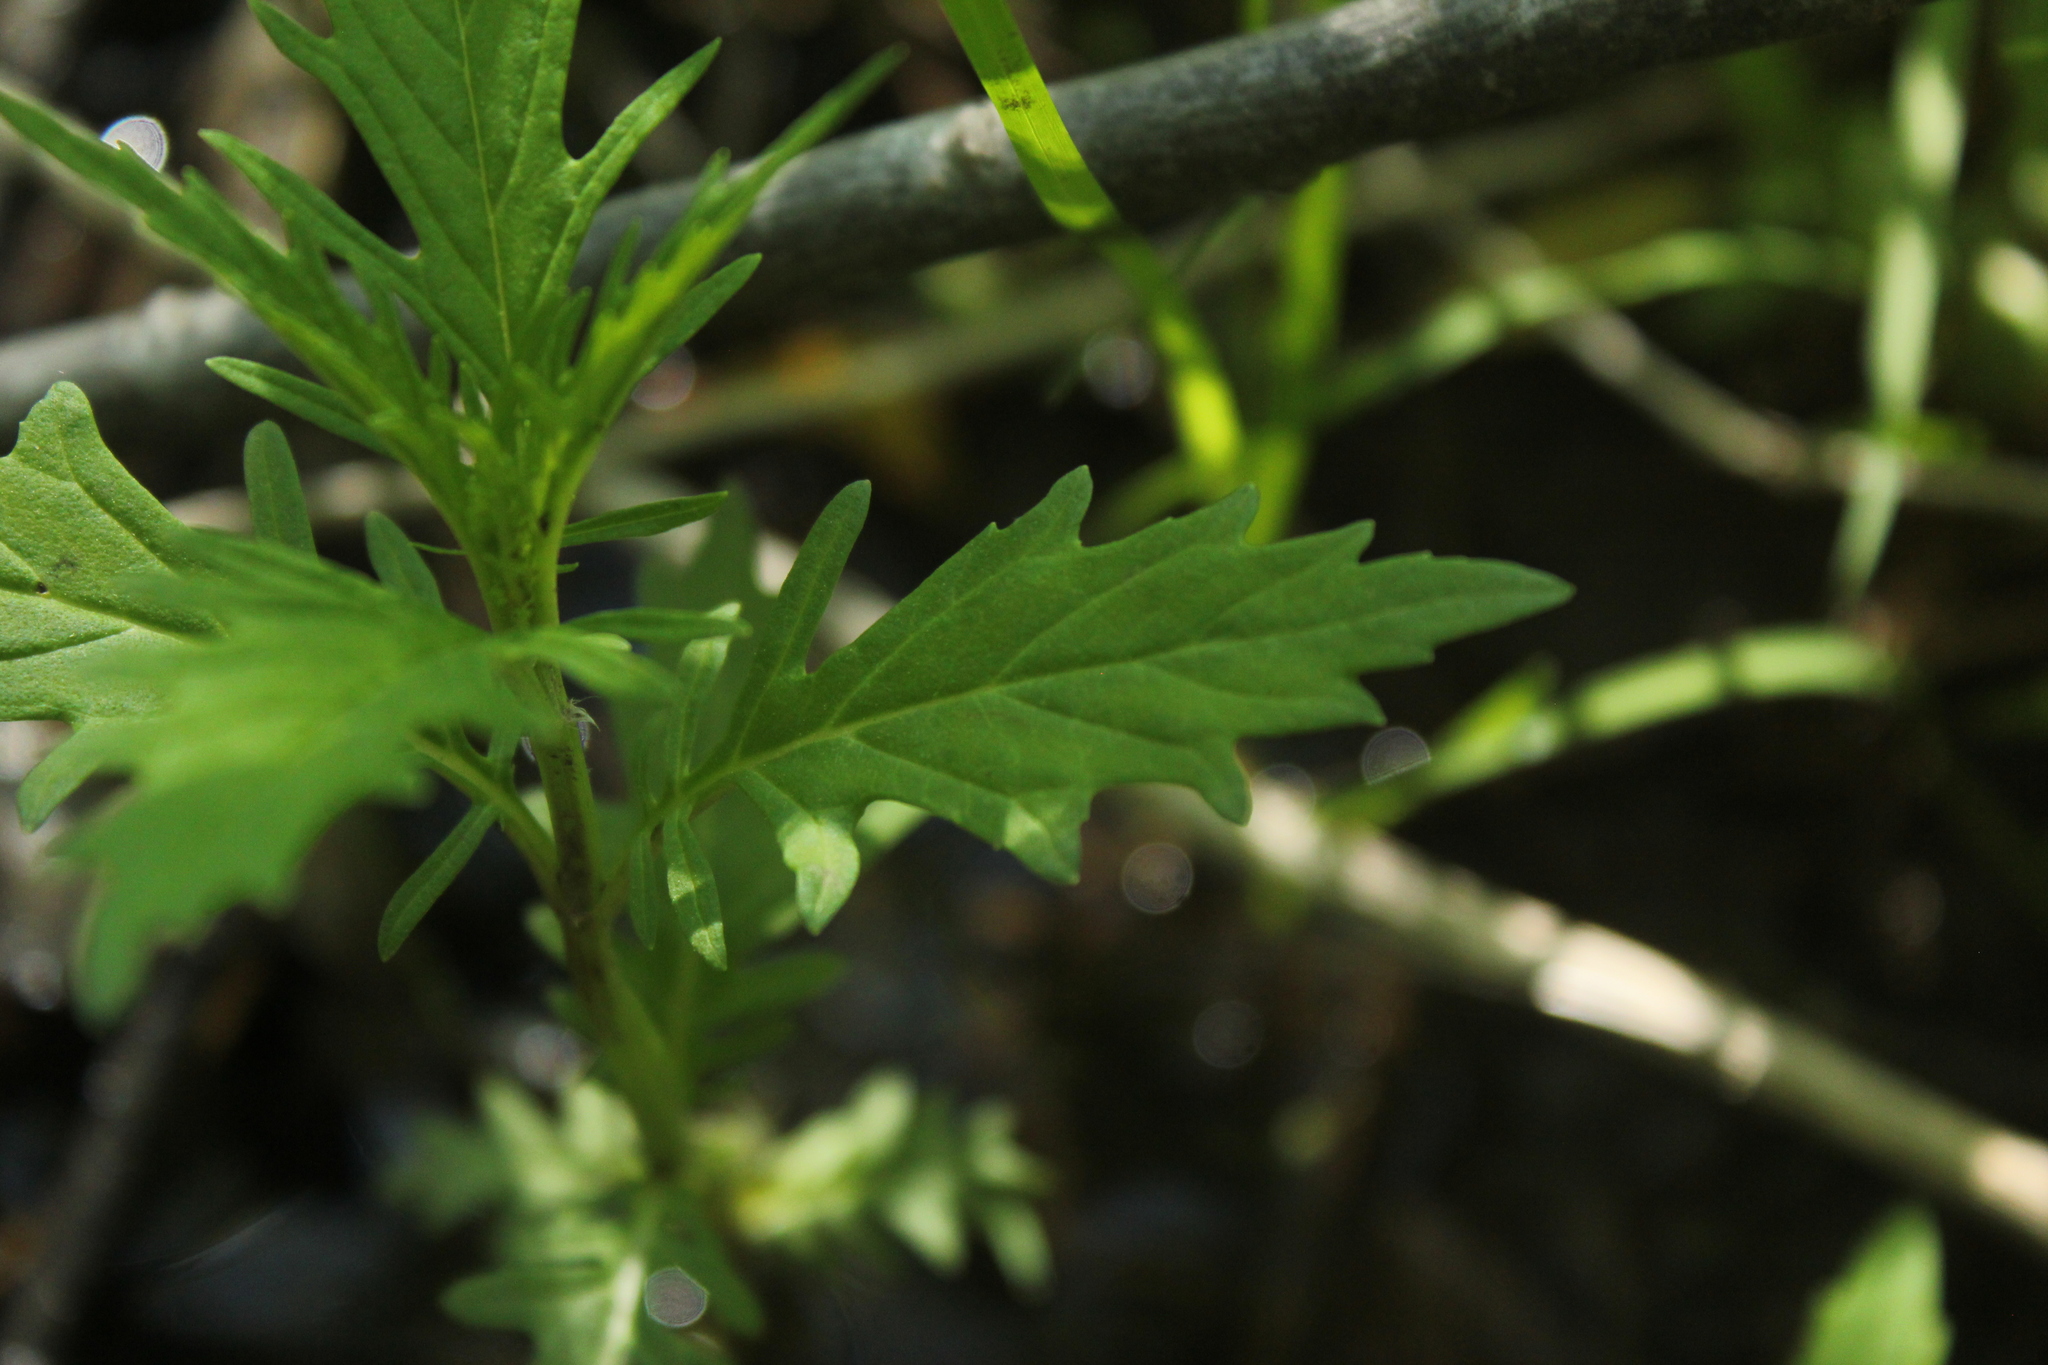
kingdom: Plantae
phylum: Tracheophyta
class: Magnoliopsida
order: Lamiales
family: Lamiaceae
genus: Lycopus
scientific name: Lycopus americanus
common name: American bugleweed
